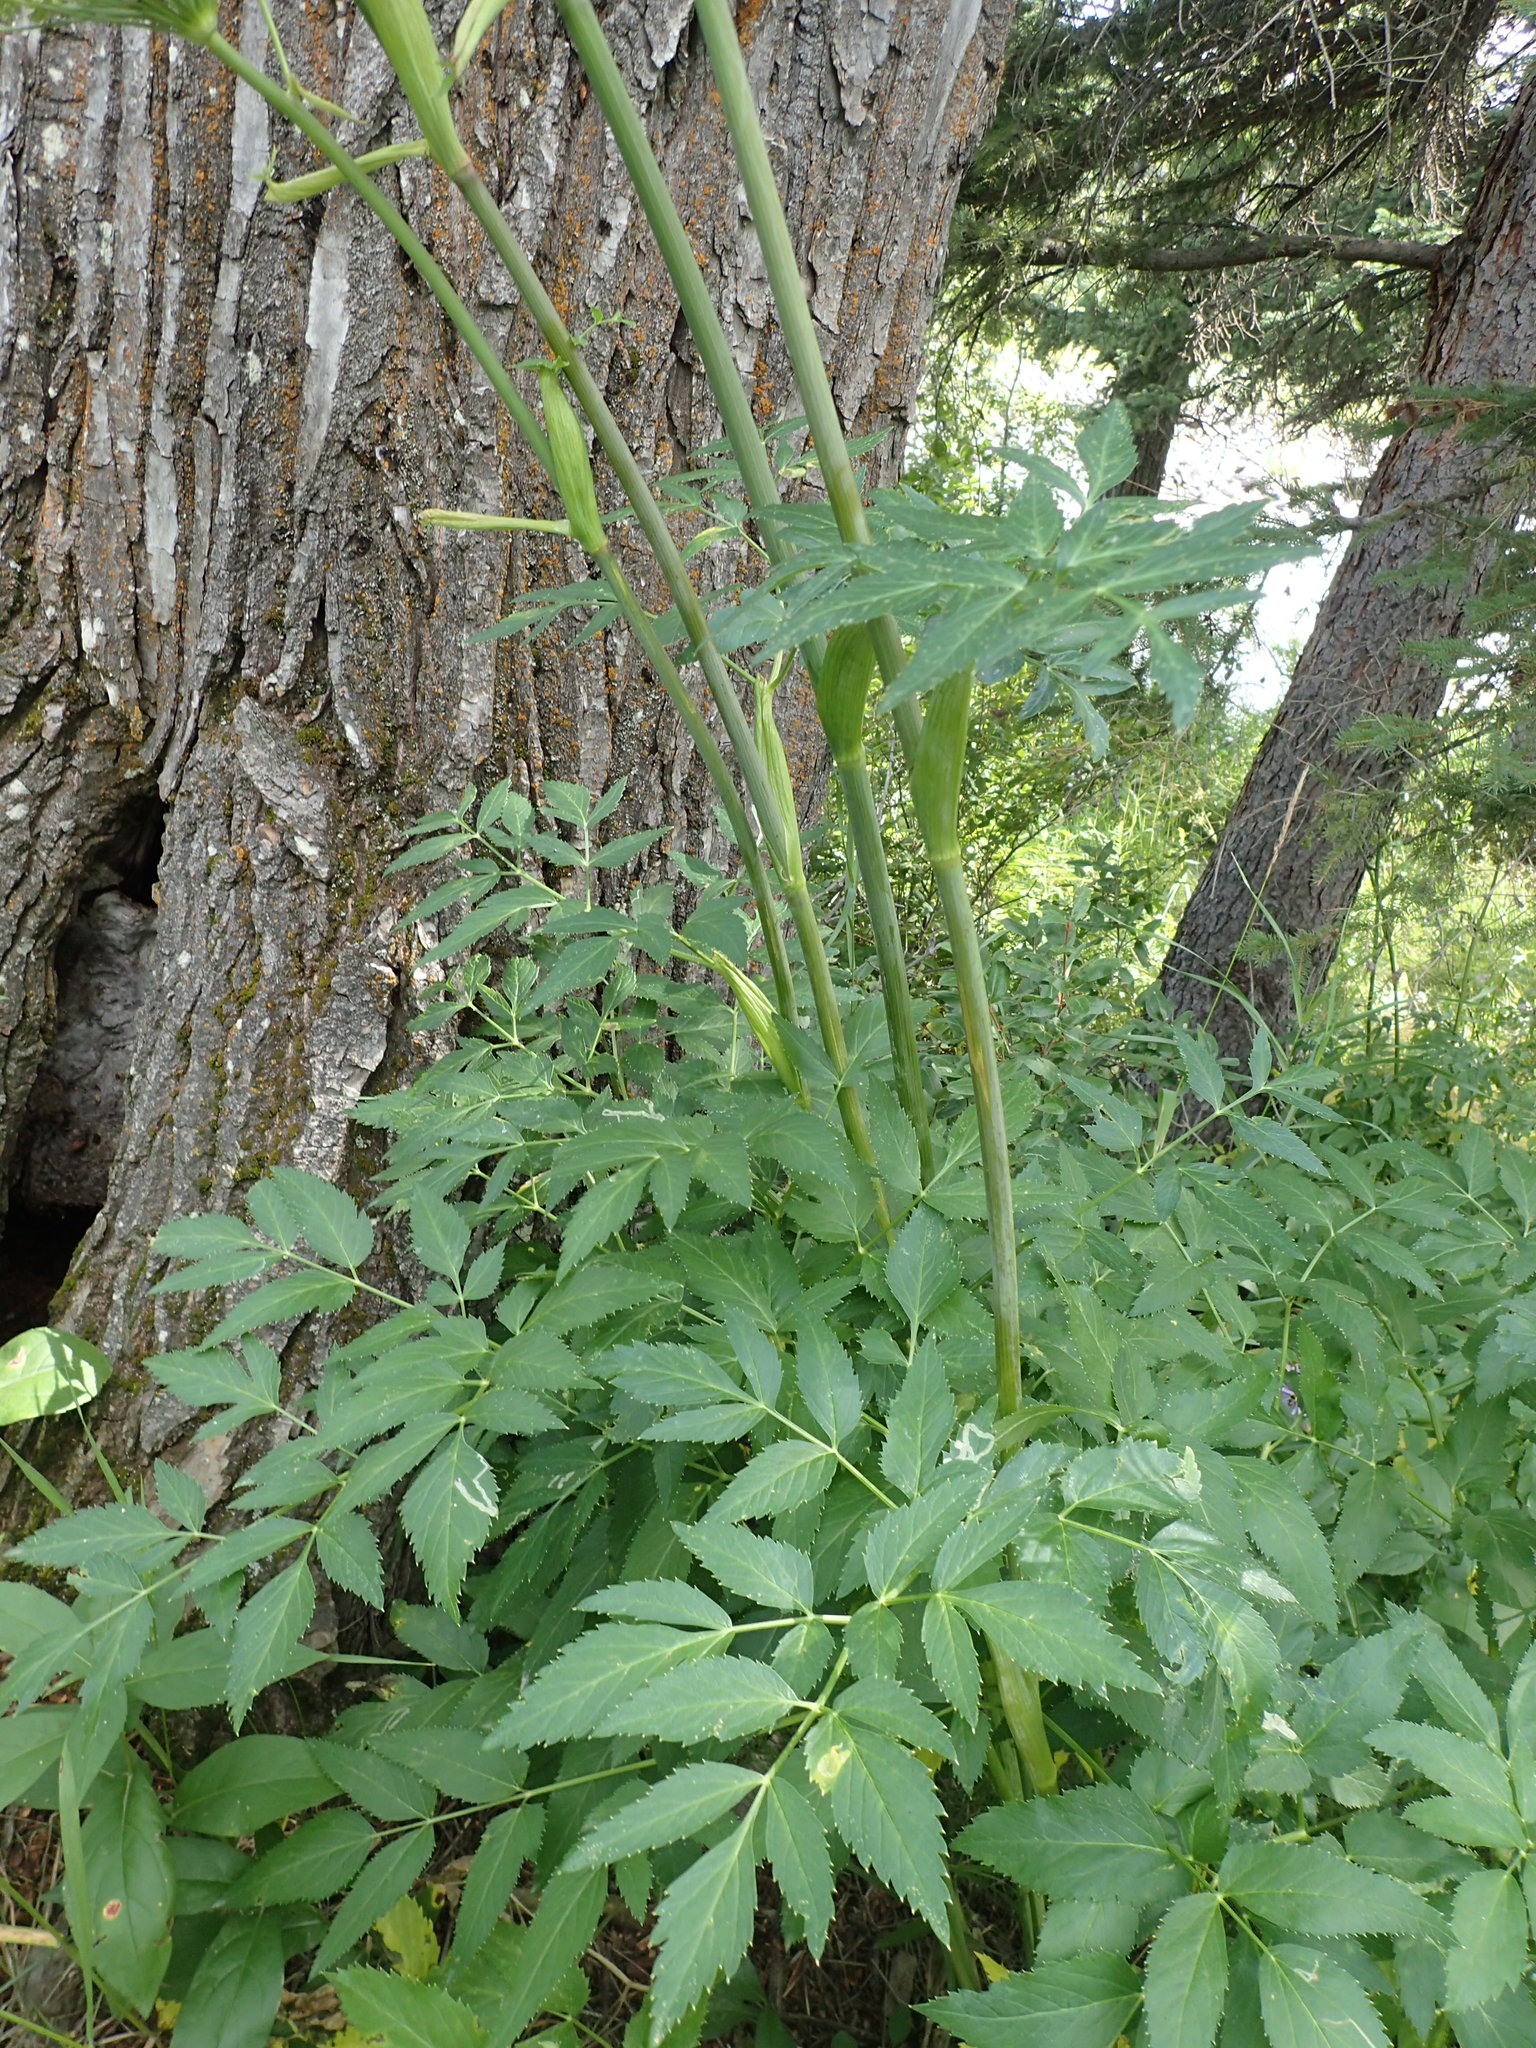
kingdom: Plantae
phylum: Tracheophyta
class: Magnoliopsida
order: Apiales
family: Apiaceae
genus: Angelica
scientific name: Angelica arguta
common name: Lyall's angelica
